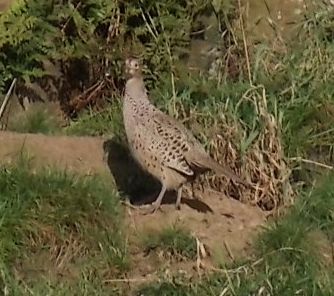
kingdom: Animalia
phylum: Chordata
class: Aves
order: Galliformes
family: Phasianidae
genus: Phasianus
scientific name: Phasianus colchicus
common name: Common pheasant
